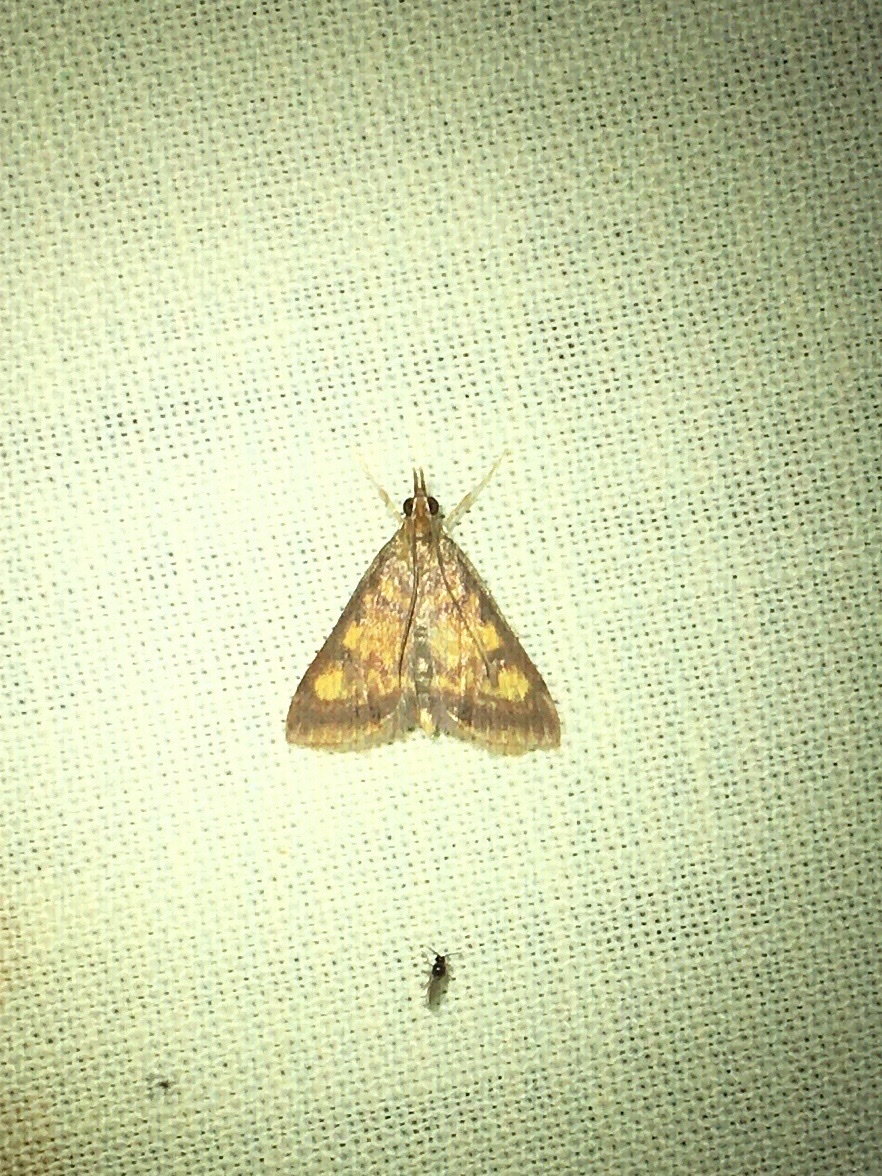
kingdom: Animalia
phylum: Arthropoda
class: Insecta
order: Lepidoptera
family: Crambidae
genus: Pyrausta
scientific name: Pyrausta acrionalis
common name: Mint-loving pyrausta moth
